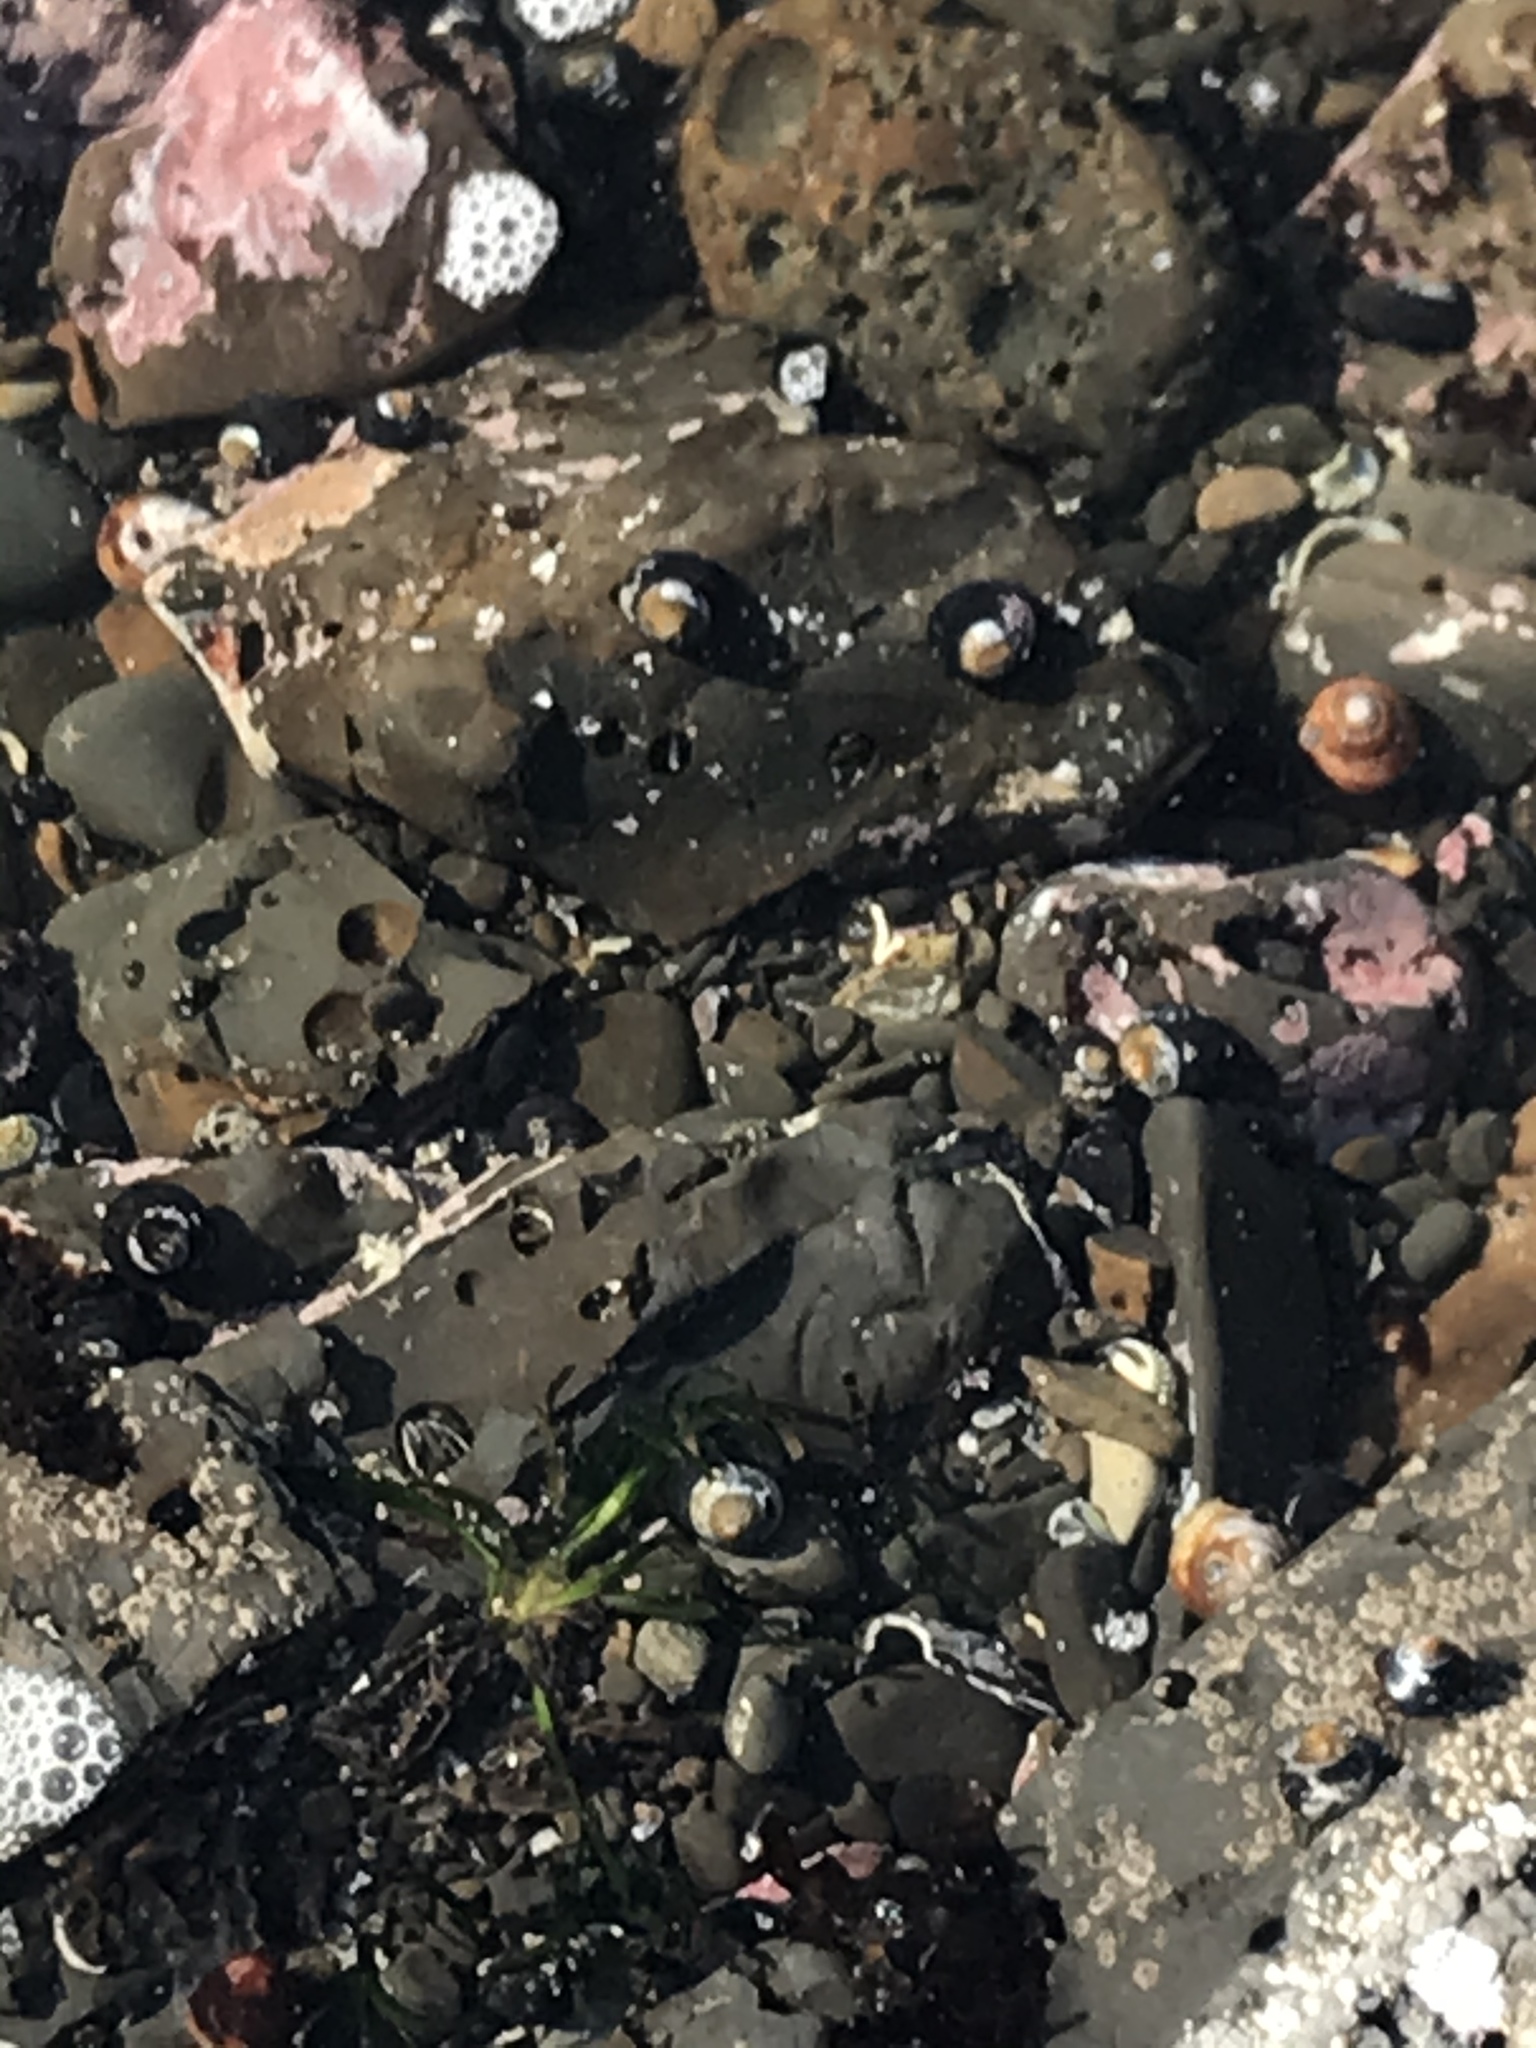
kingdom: Animalia
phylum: Mollusca
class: Gastropoda
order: Trochida
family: Tegulidae
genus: Tegula
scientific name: Tegula funebralis
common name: Black tegula
